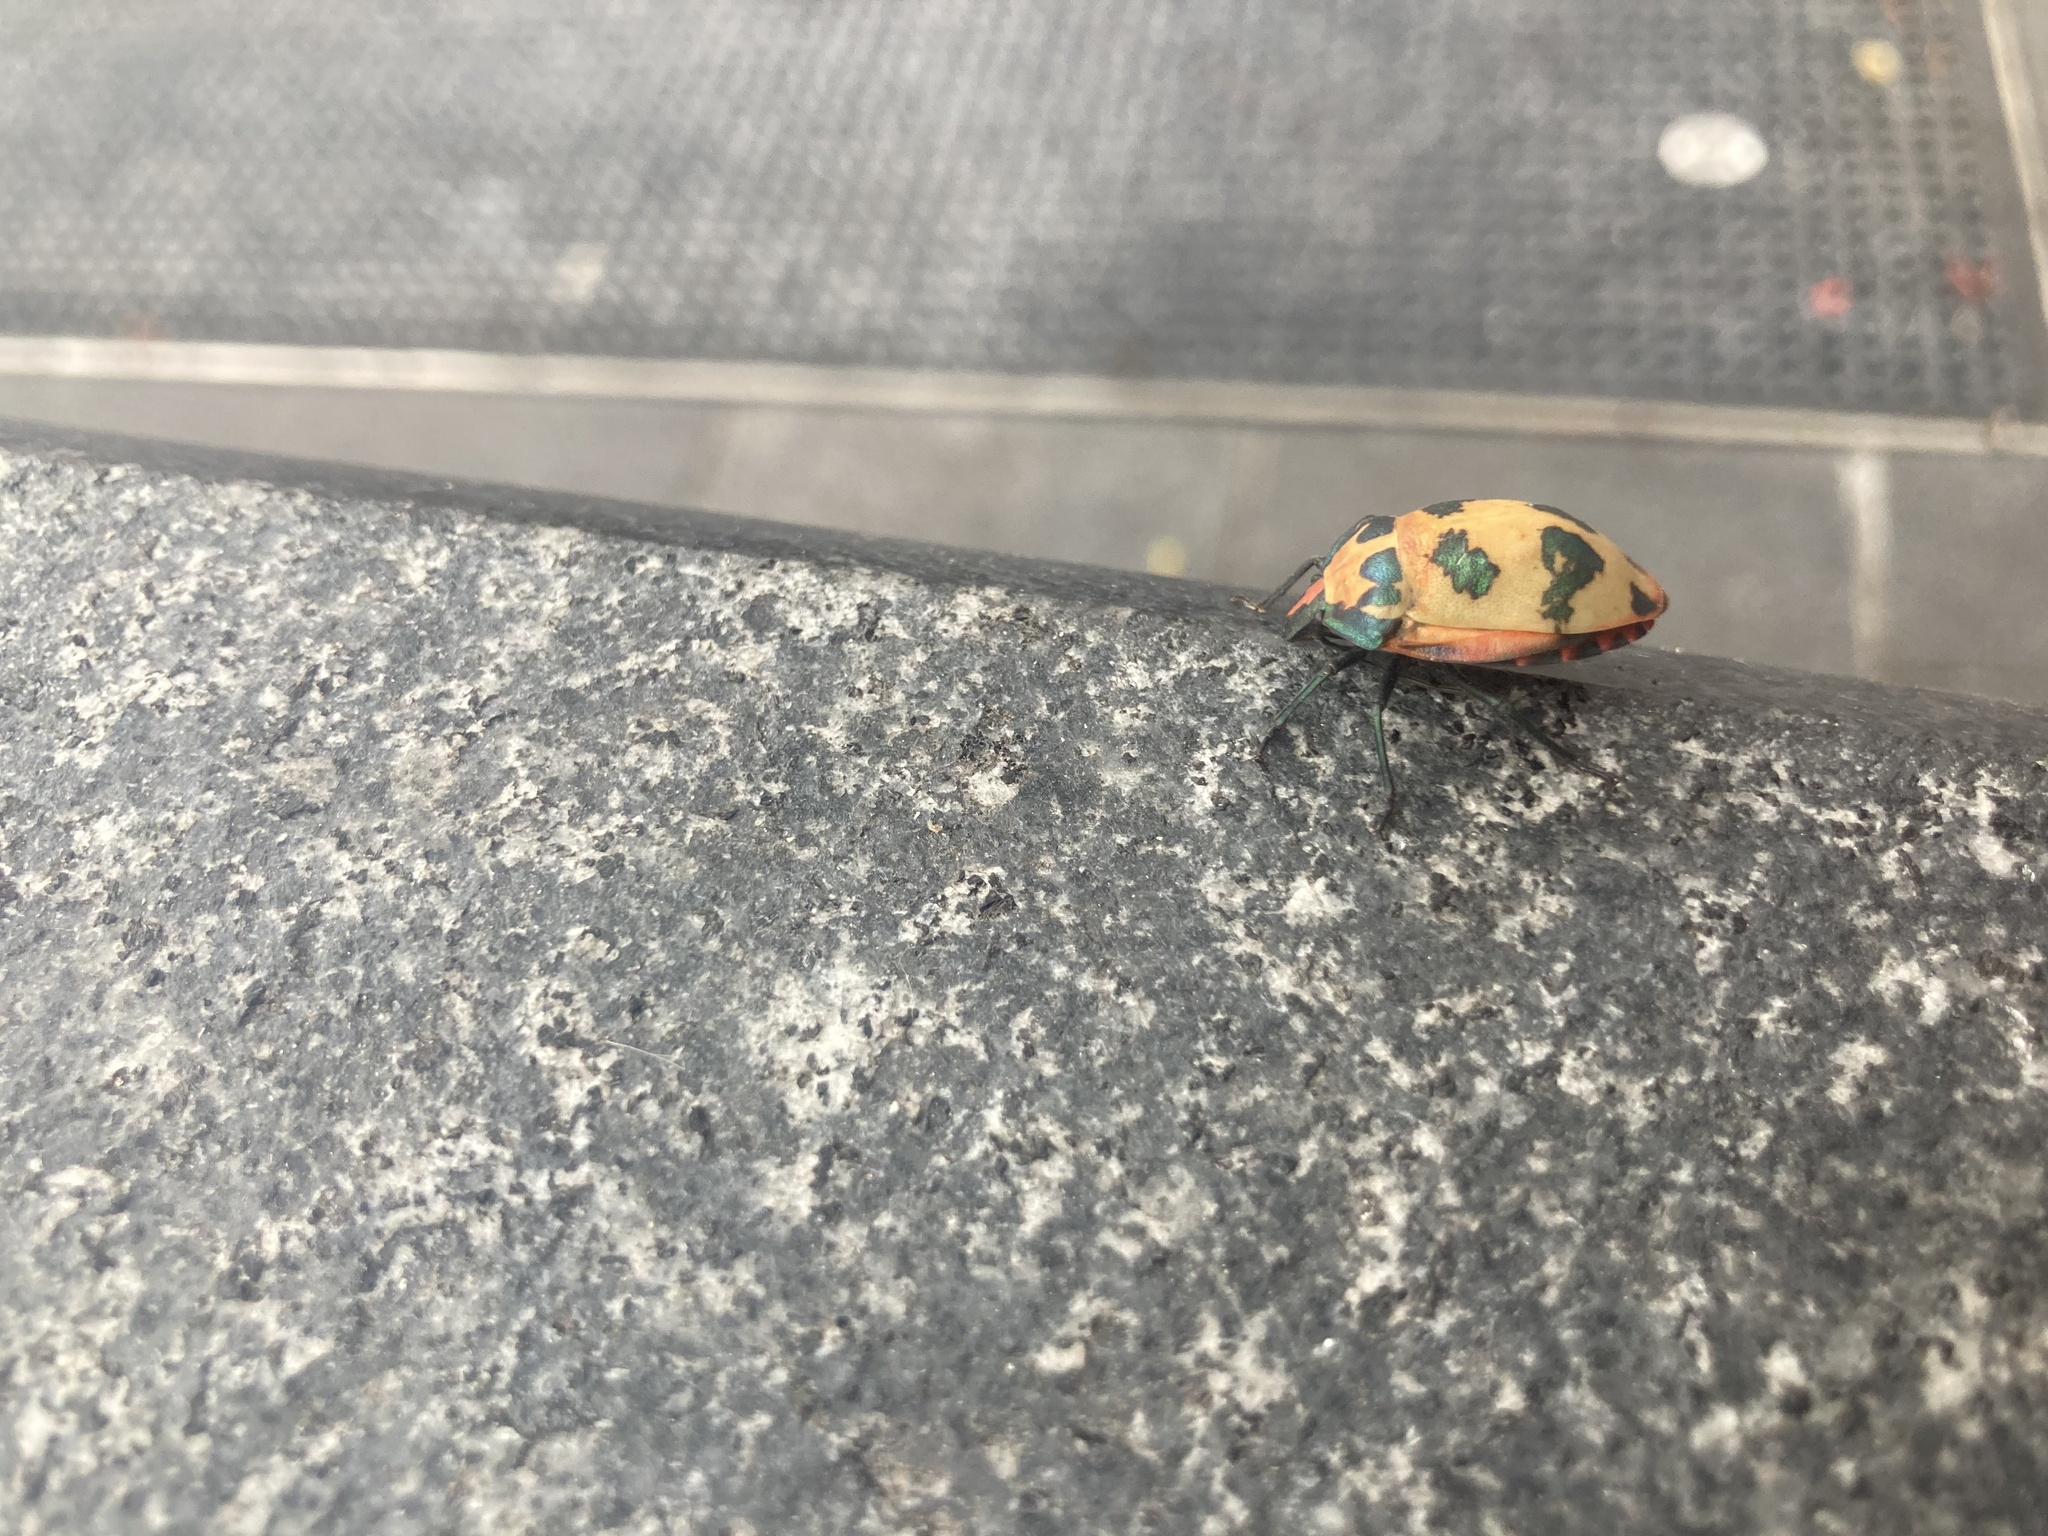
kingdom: Animalia
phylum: Arthropoda
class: Insecta
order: Hemiptera
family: Scutelleridae
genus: Tectocoris
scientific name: Tectocoris diophthalmus
